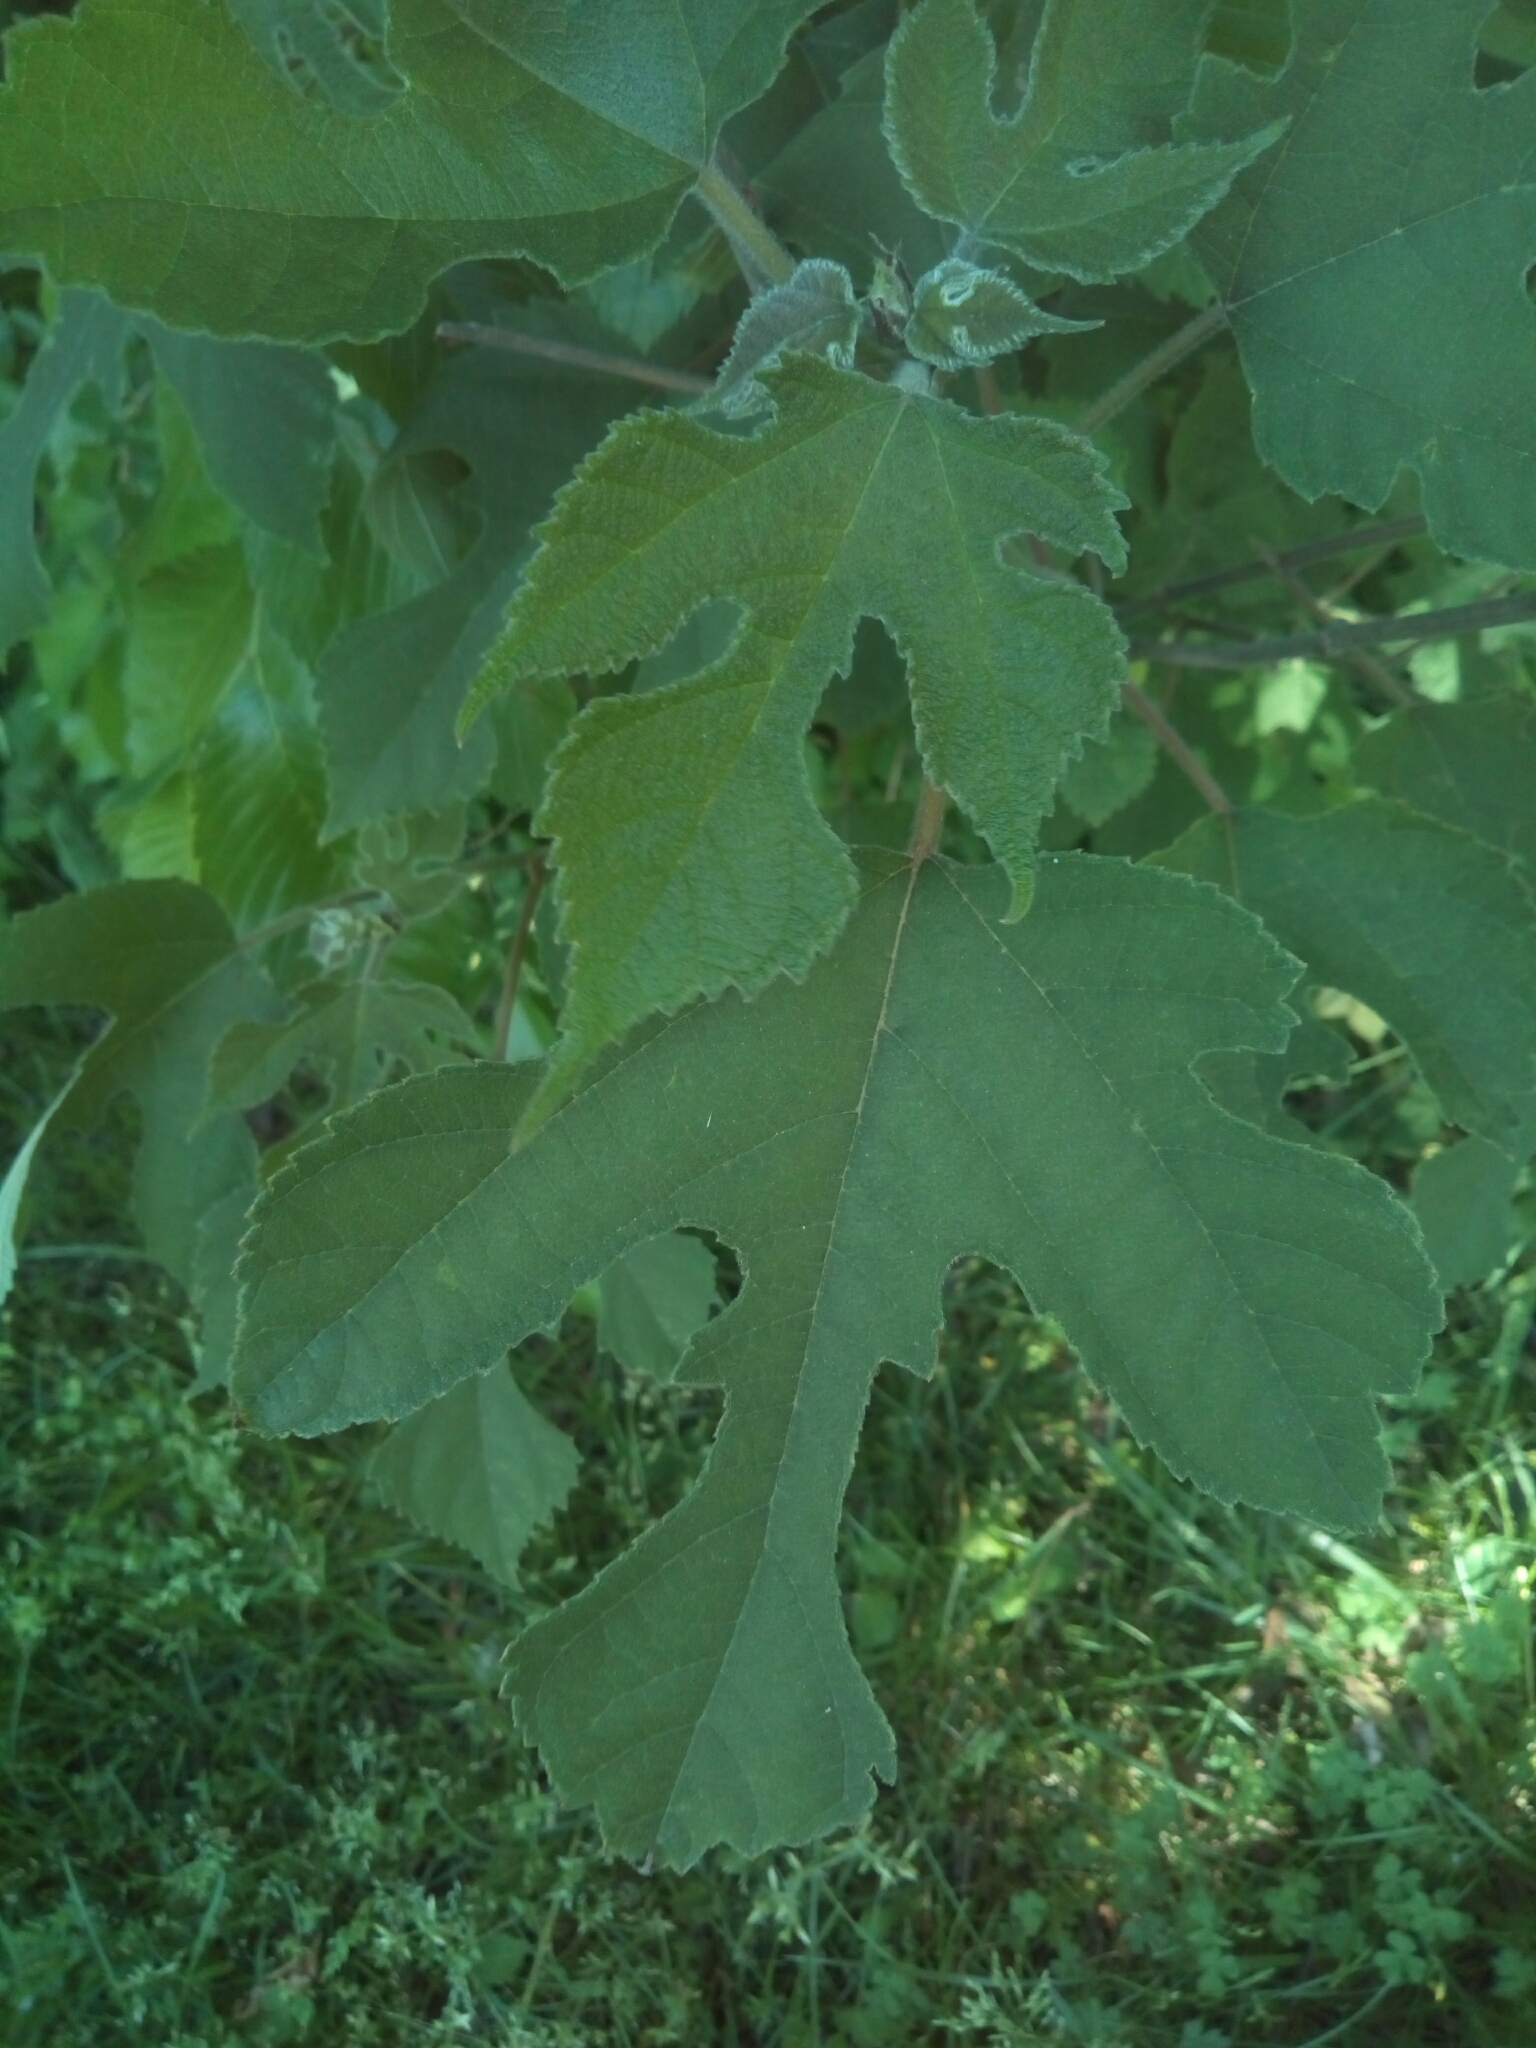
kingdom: Plantae
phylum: Tracheophyta
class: Magnoliopsida
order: Rosales
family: Moraceae
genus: Broussonetia
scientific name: Broussonetia papyrifera
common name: Paper mulberry
